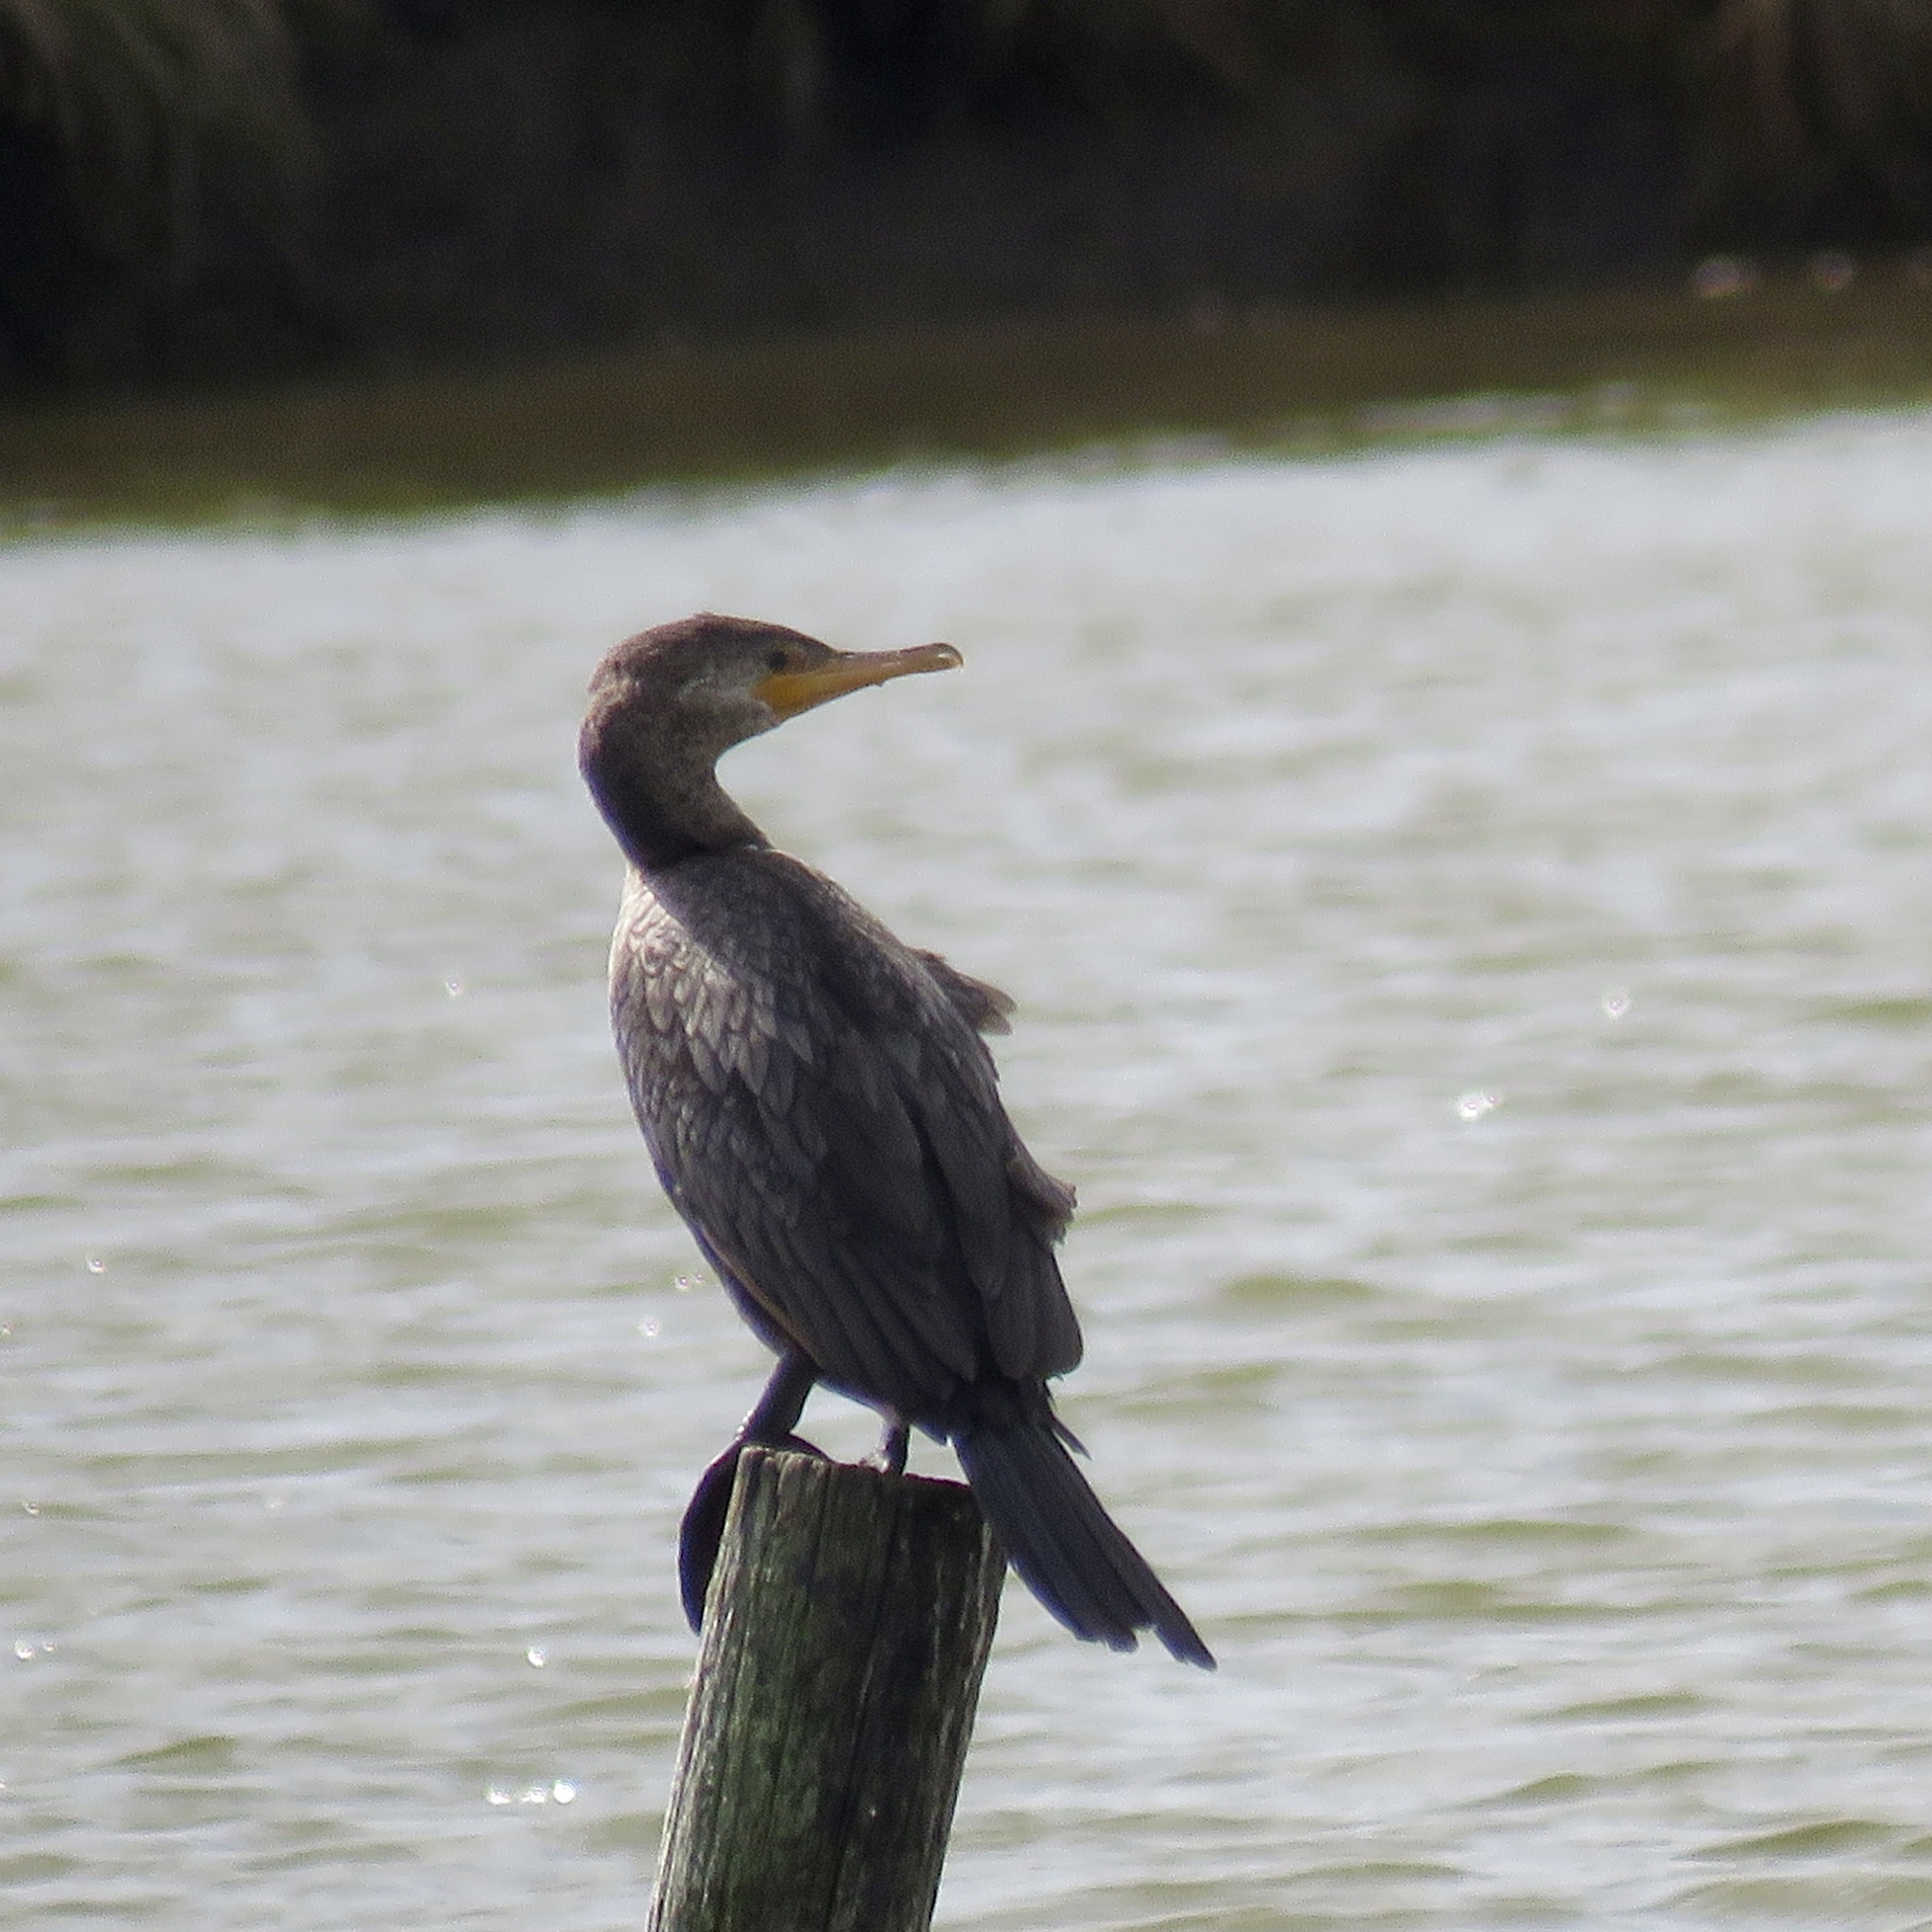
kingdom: Animalia
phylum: Chordata
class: Aves
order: Suliformes
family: Phalacrocoracidae
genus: Phalacrocorax
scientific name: Phalacrocorax brasilianus
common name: Neotropic cormorant
